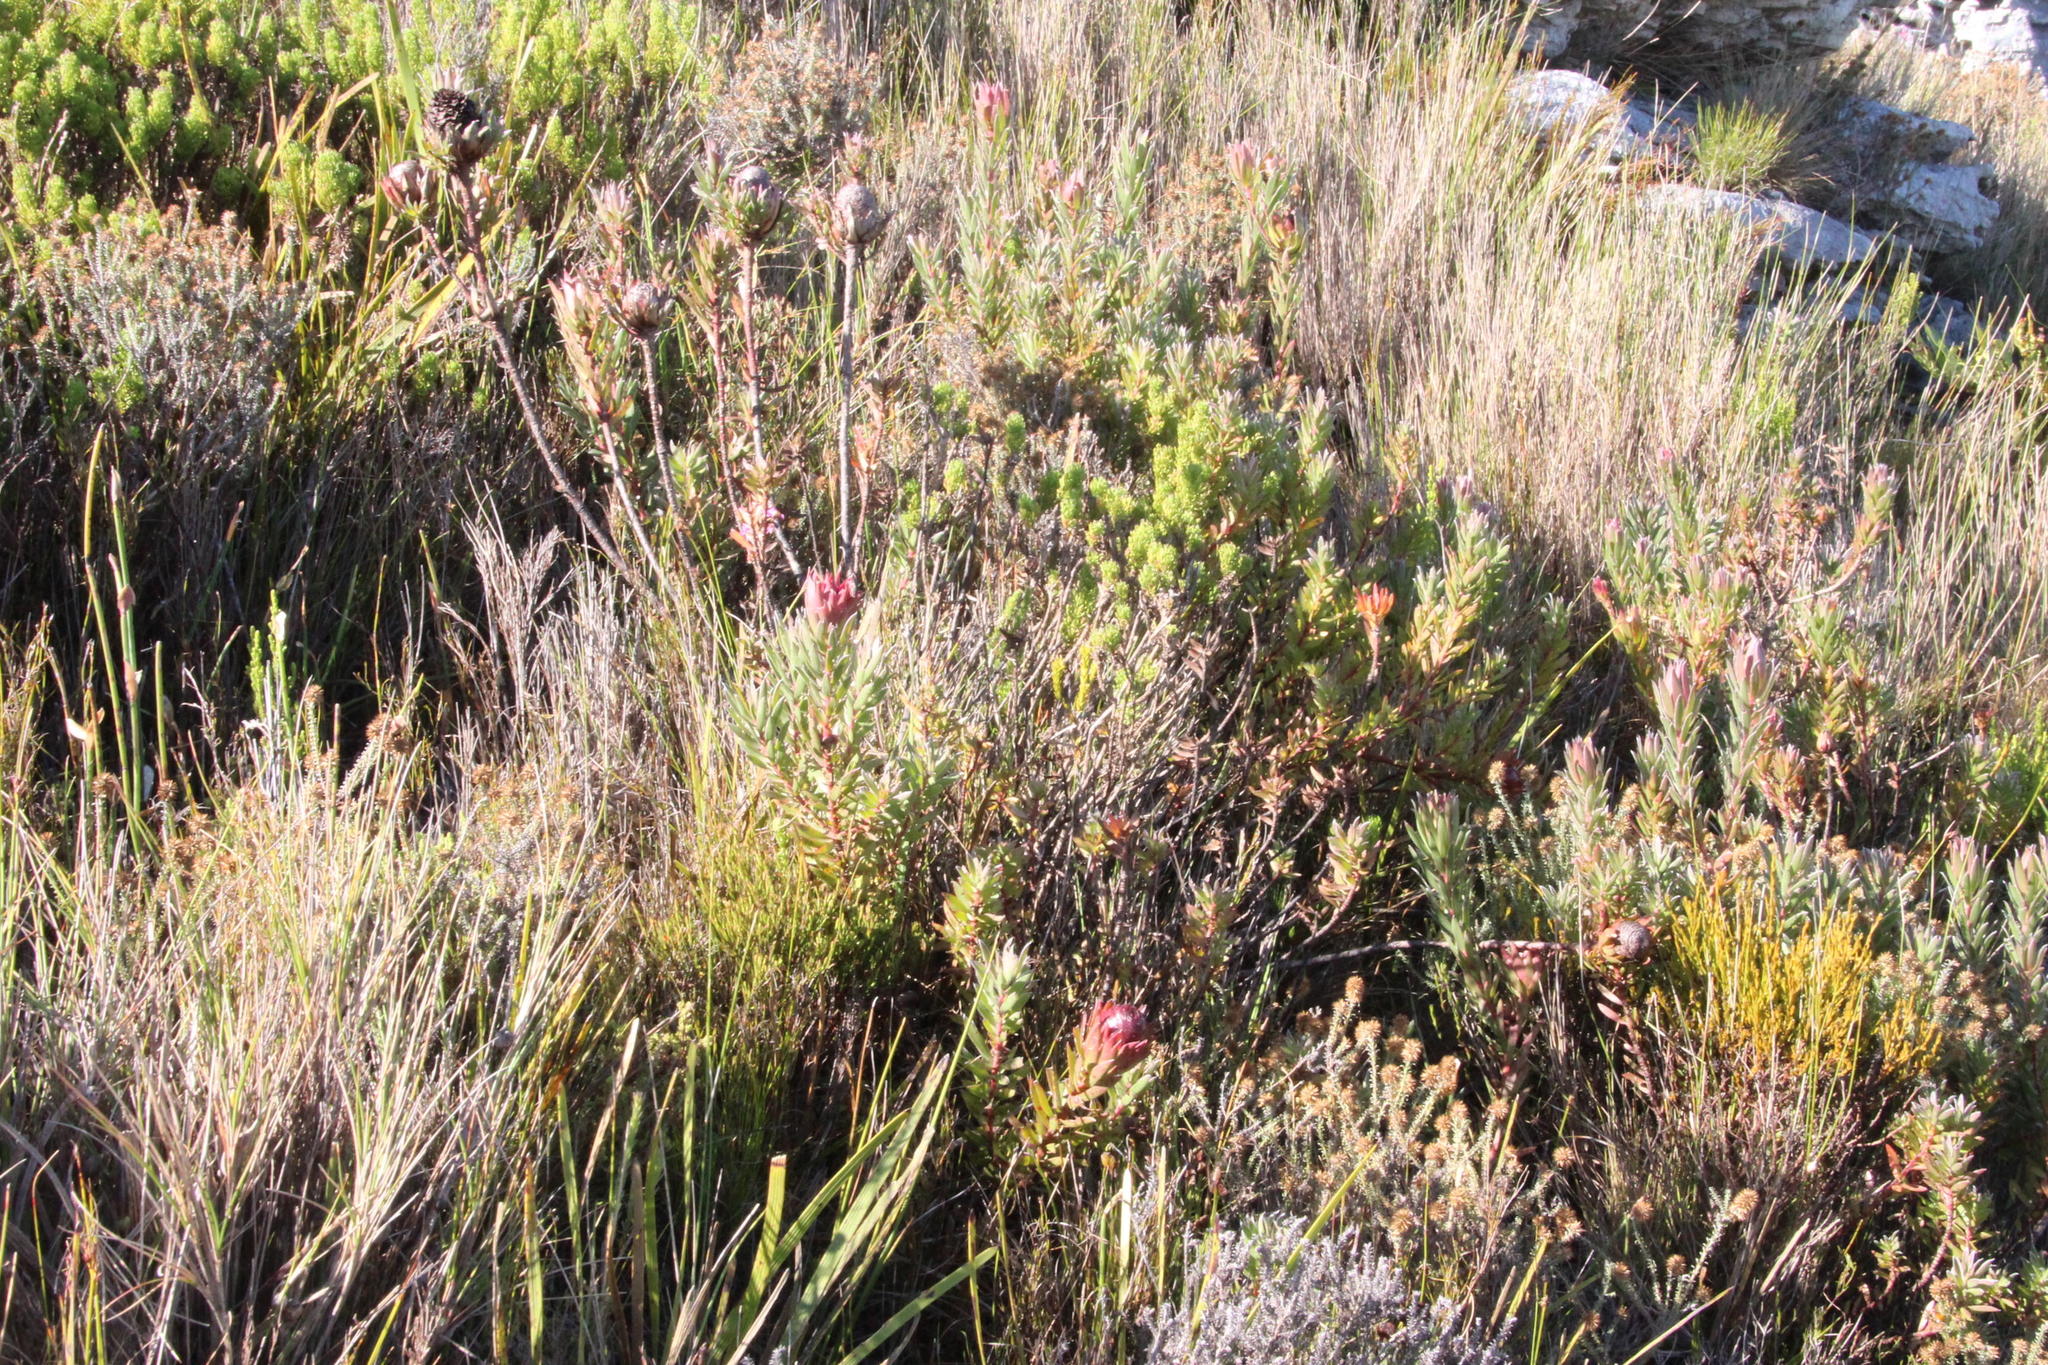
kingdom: Plantae
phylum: Tracheophyta
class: Magnoliopsida
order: Proteales
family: Proteaceae
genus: Leucadendron
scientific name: Leucadendron spissifolium
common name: Spear-leaf conebush
